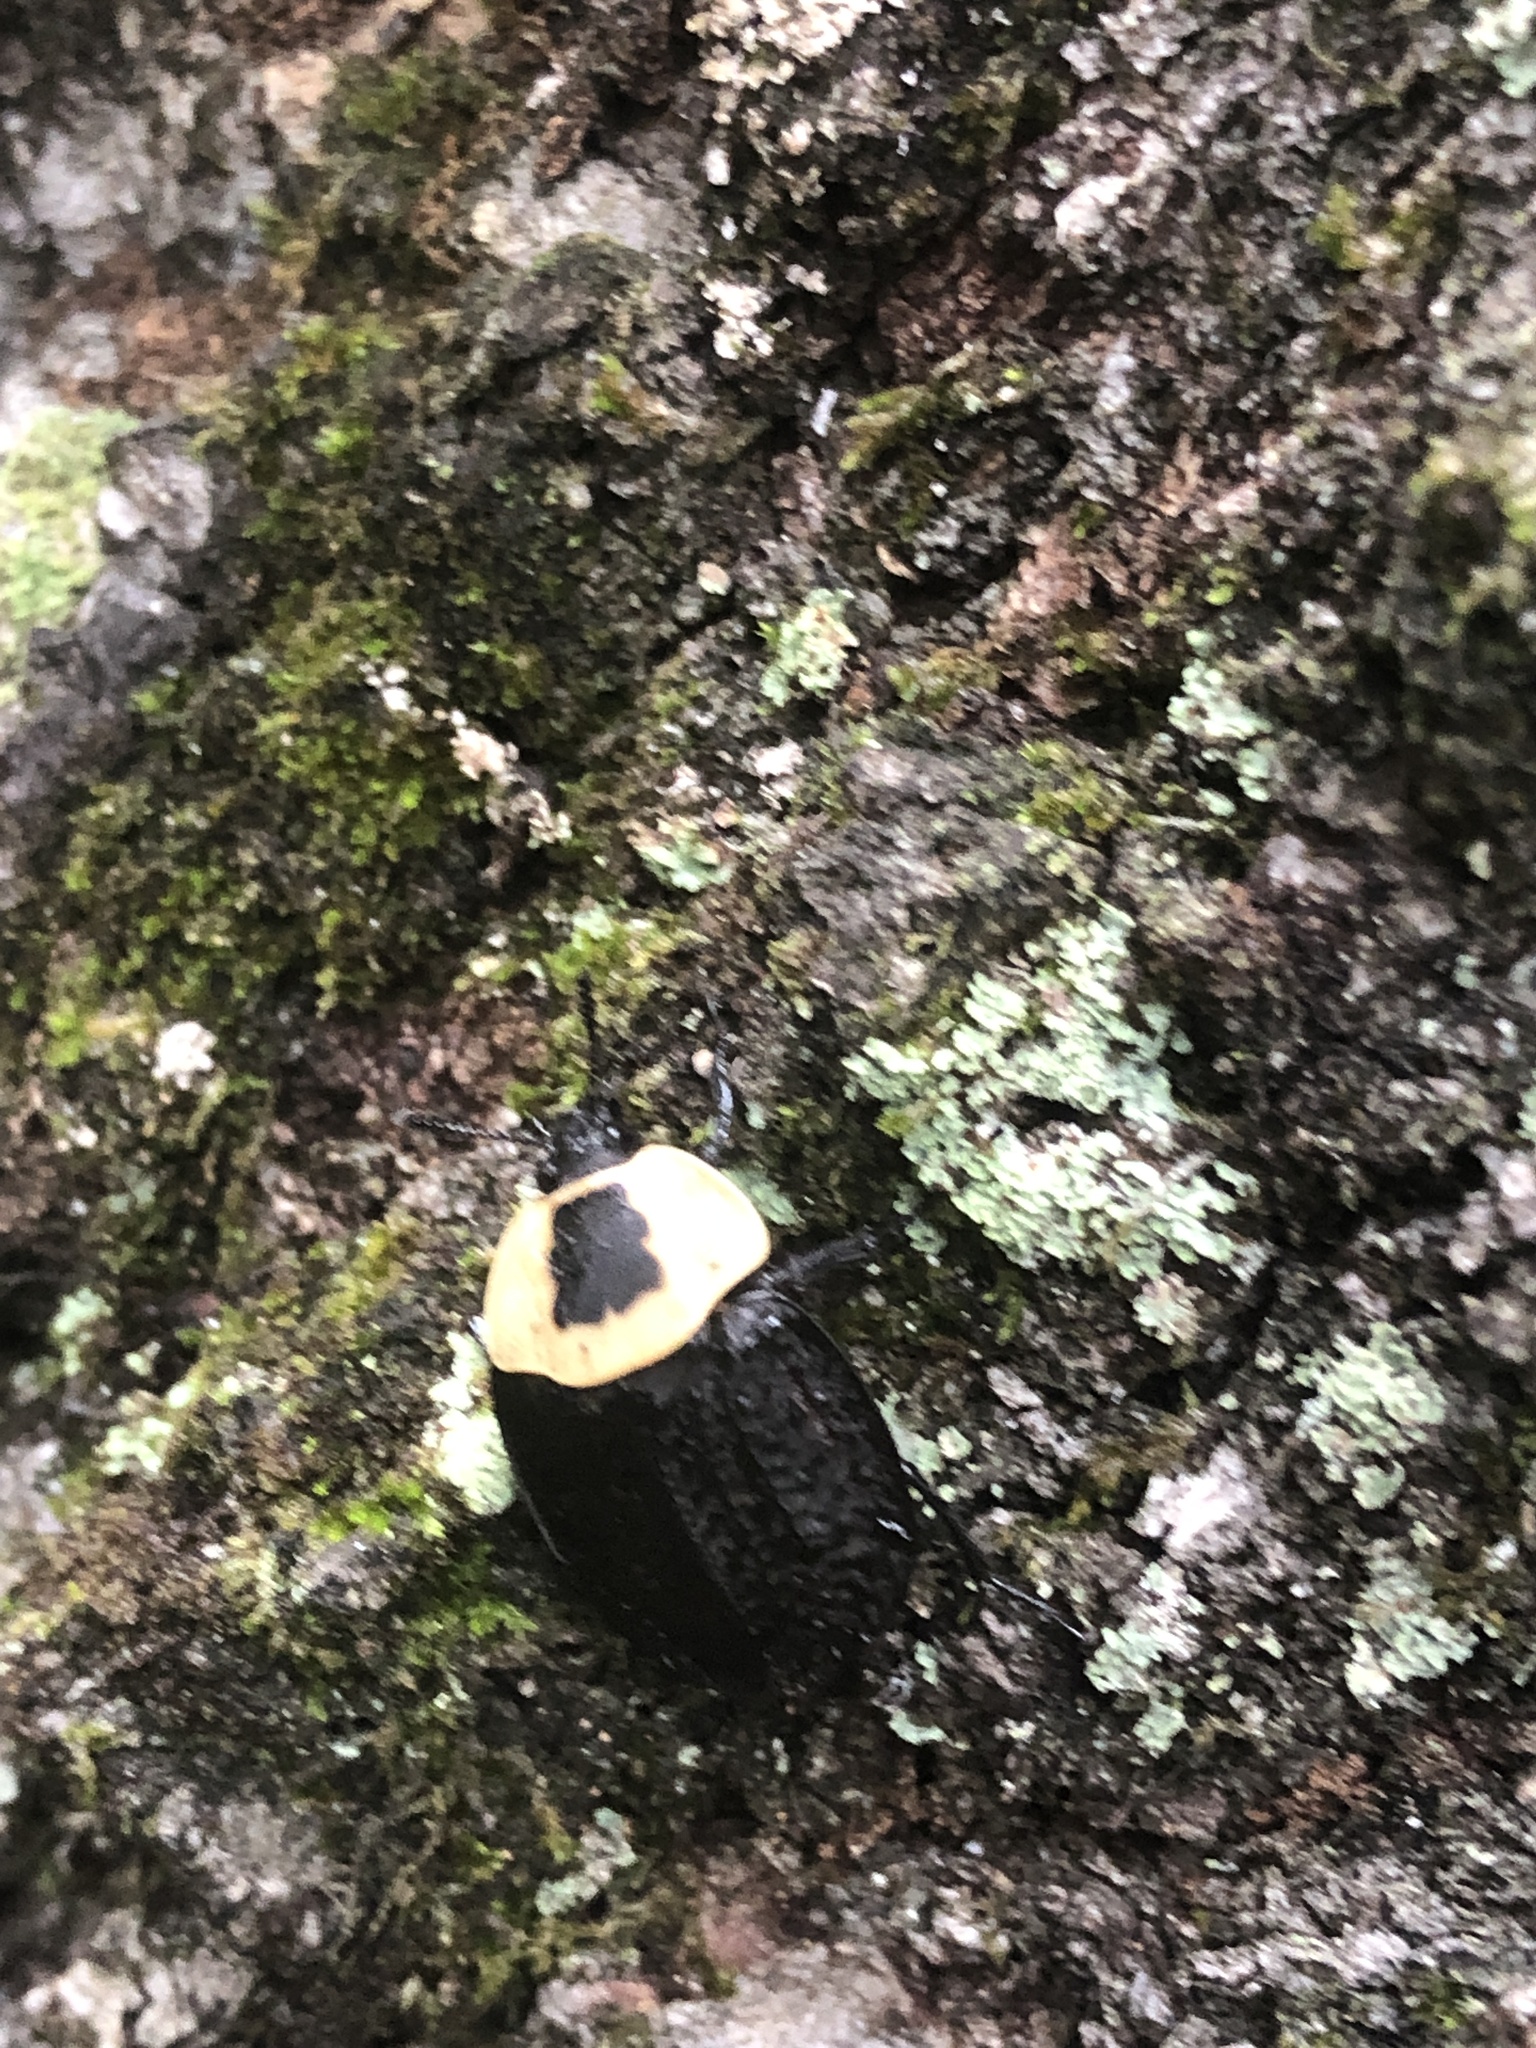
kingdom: Animalia
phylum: Arthropoda
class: Insecta
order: Coleoptera
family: Staphylinidae
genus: Necrophila
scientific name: Necrophila americana
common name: American carrion beetle
